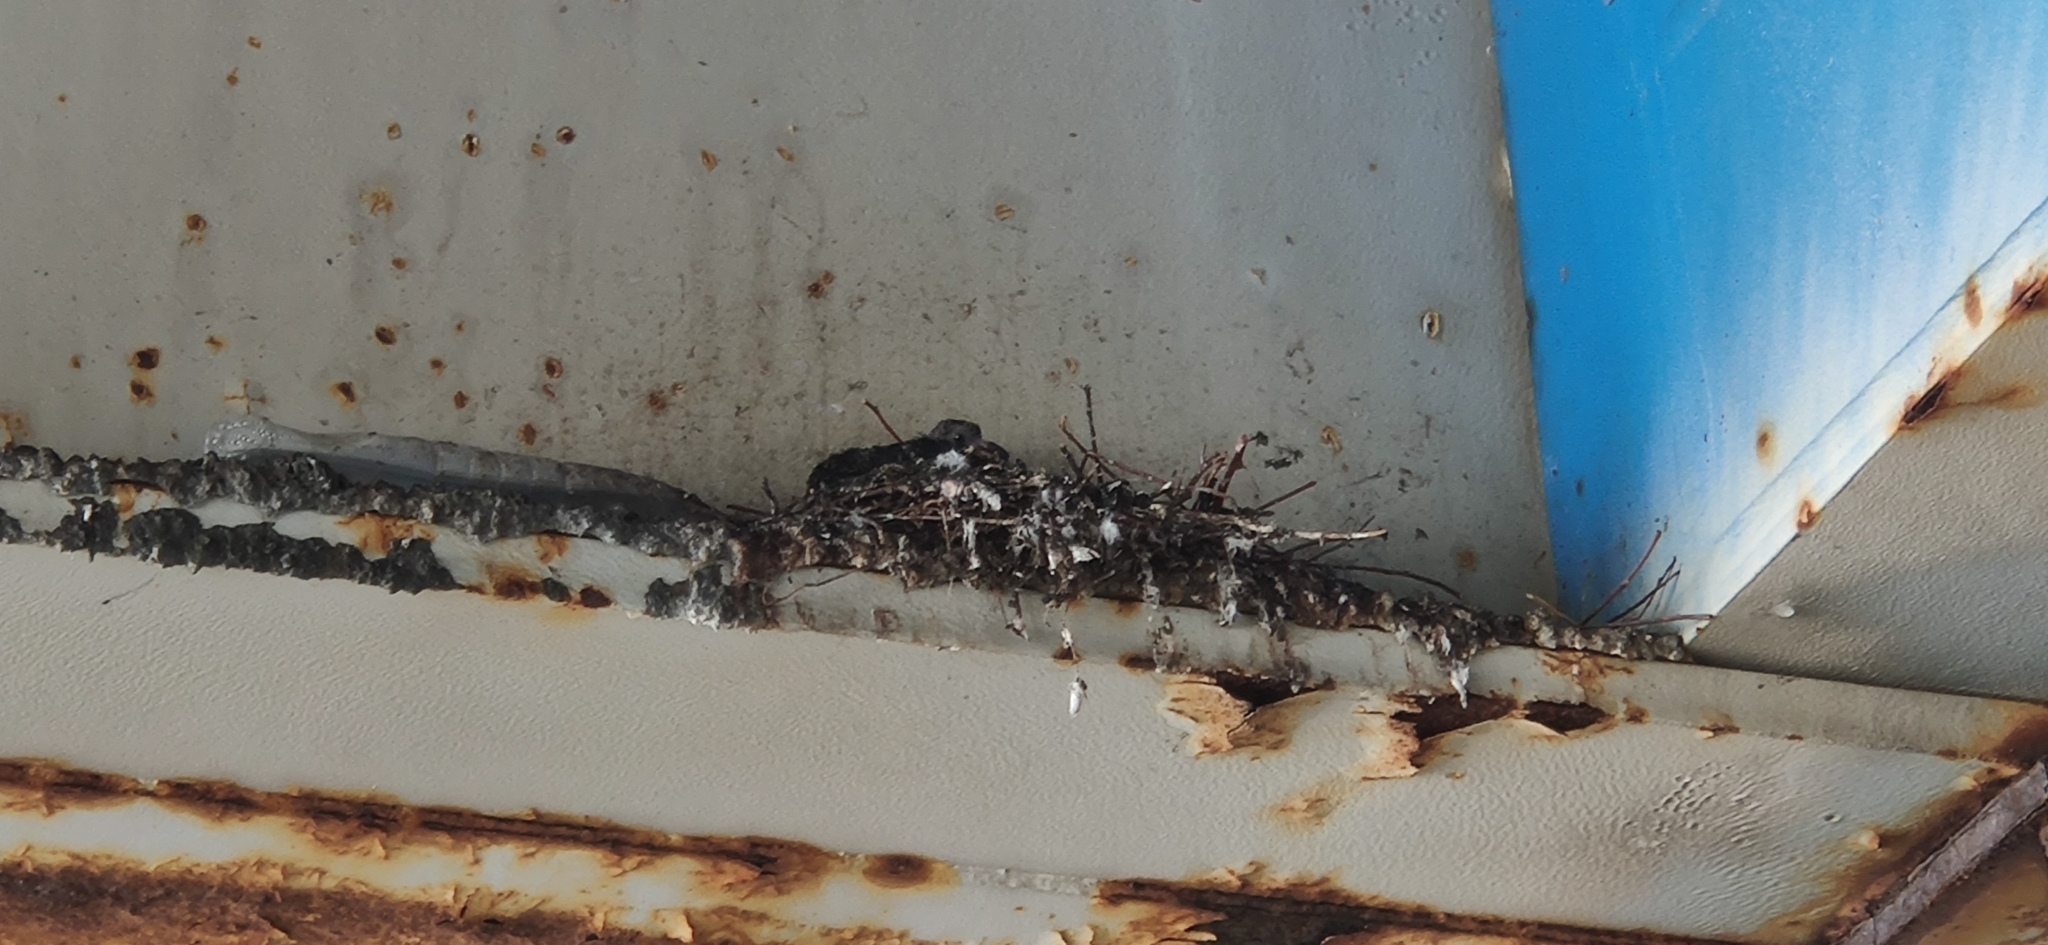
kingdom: Animalia
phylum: Chordata
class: Aves
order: Columbiformes
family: Columbidae
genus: Columba
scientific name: Columba livia
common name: Rock pigeon
